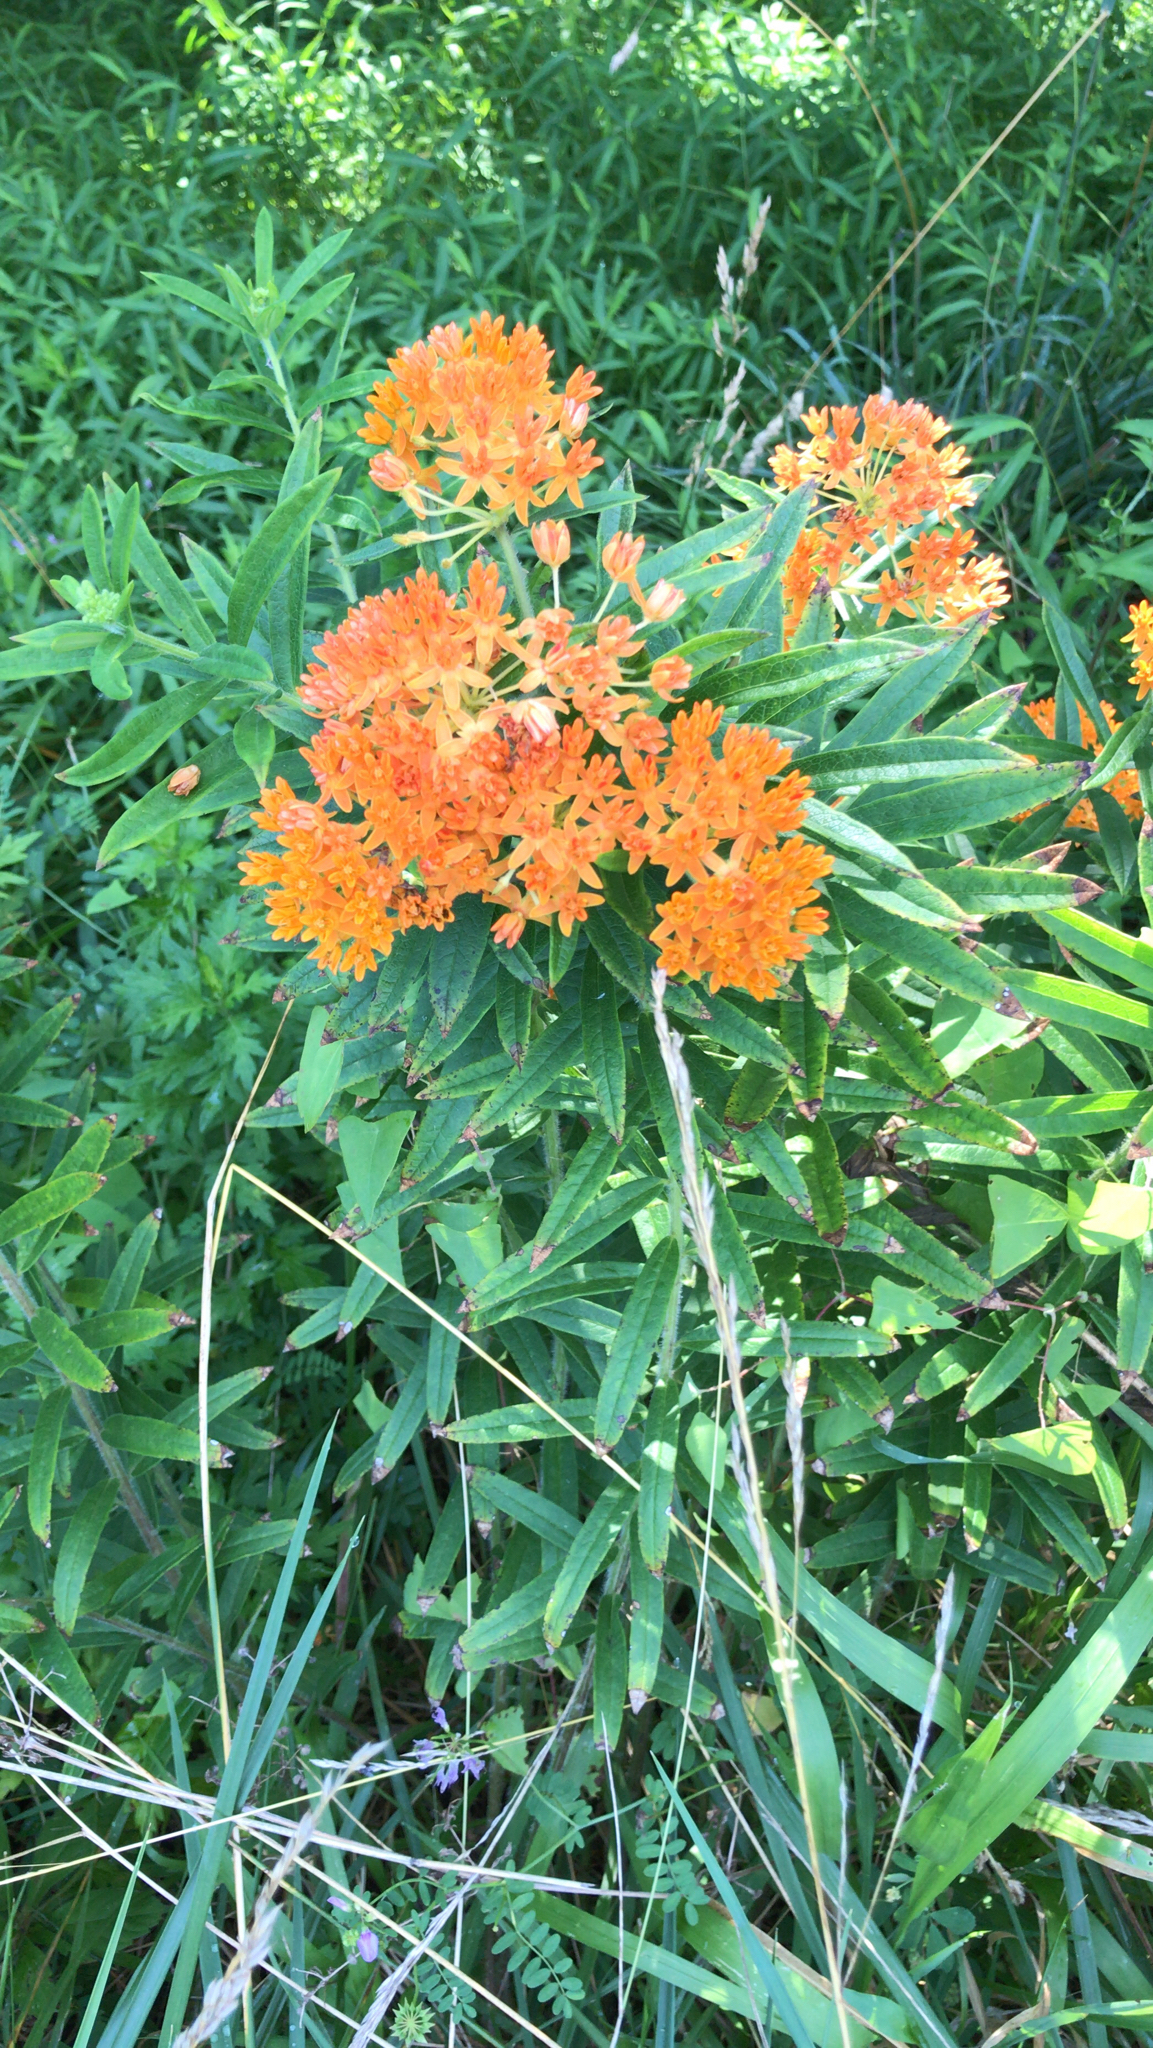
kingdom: Plantae
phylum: Tracheophyta
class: Magnoliopsida
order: Gentianales
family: Apocynaceae
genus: Asclepias
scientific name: Asclepias tuberosa
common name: Butterfly milkweed
